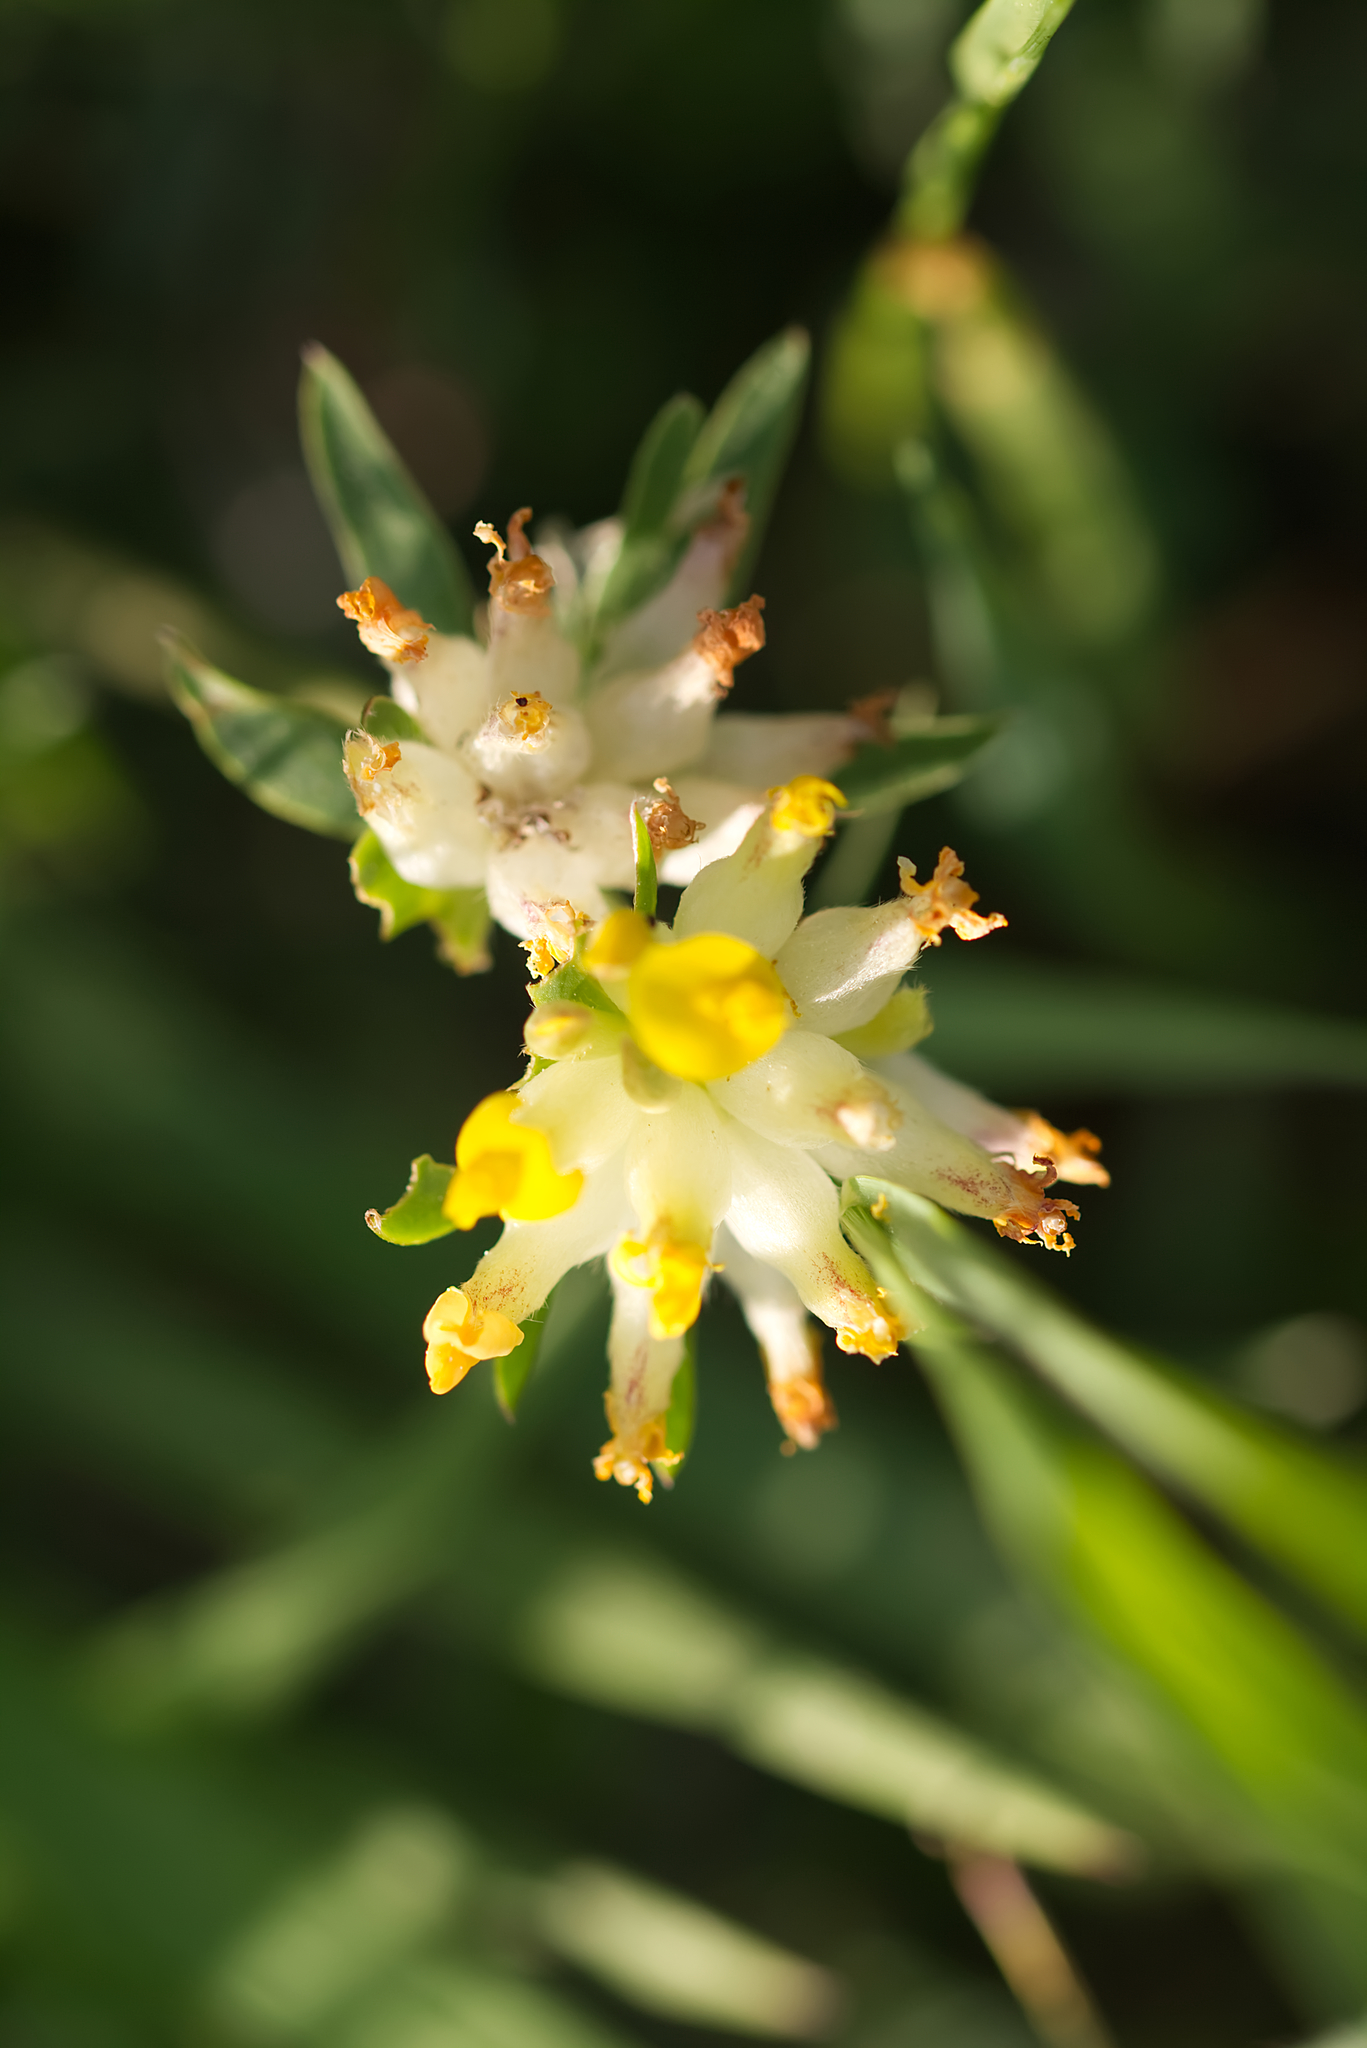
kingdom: Plantae
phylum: Tracheophyta
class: Magnoliopsida
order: Fabales
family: Fabaceae
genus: Anthyllis
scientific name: Anthyllis vulneraria
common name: Kidney vetch
